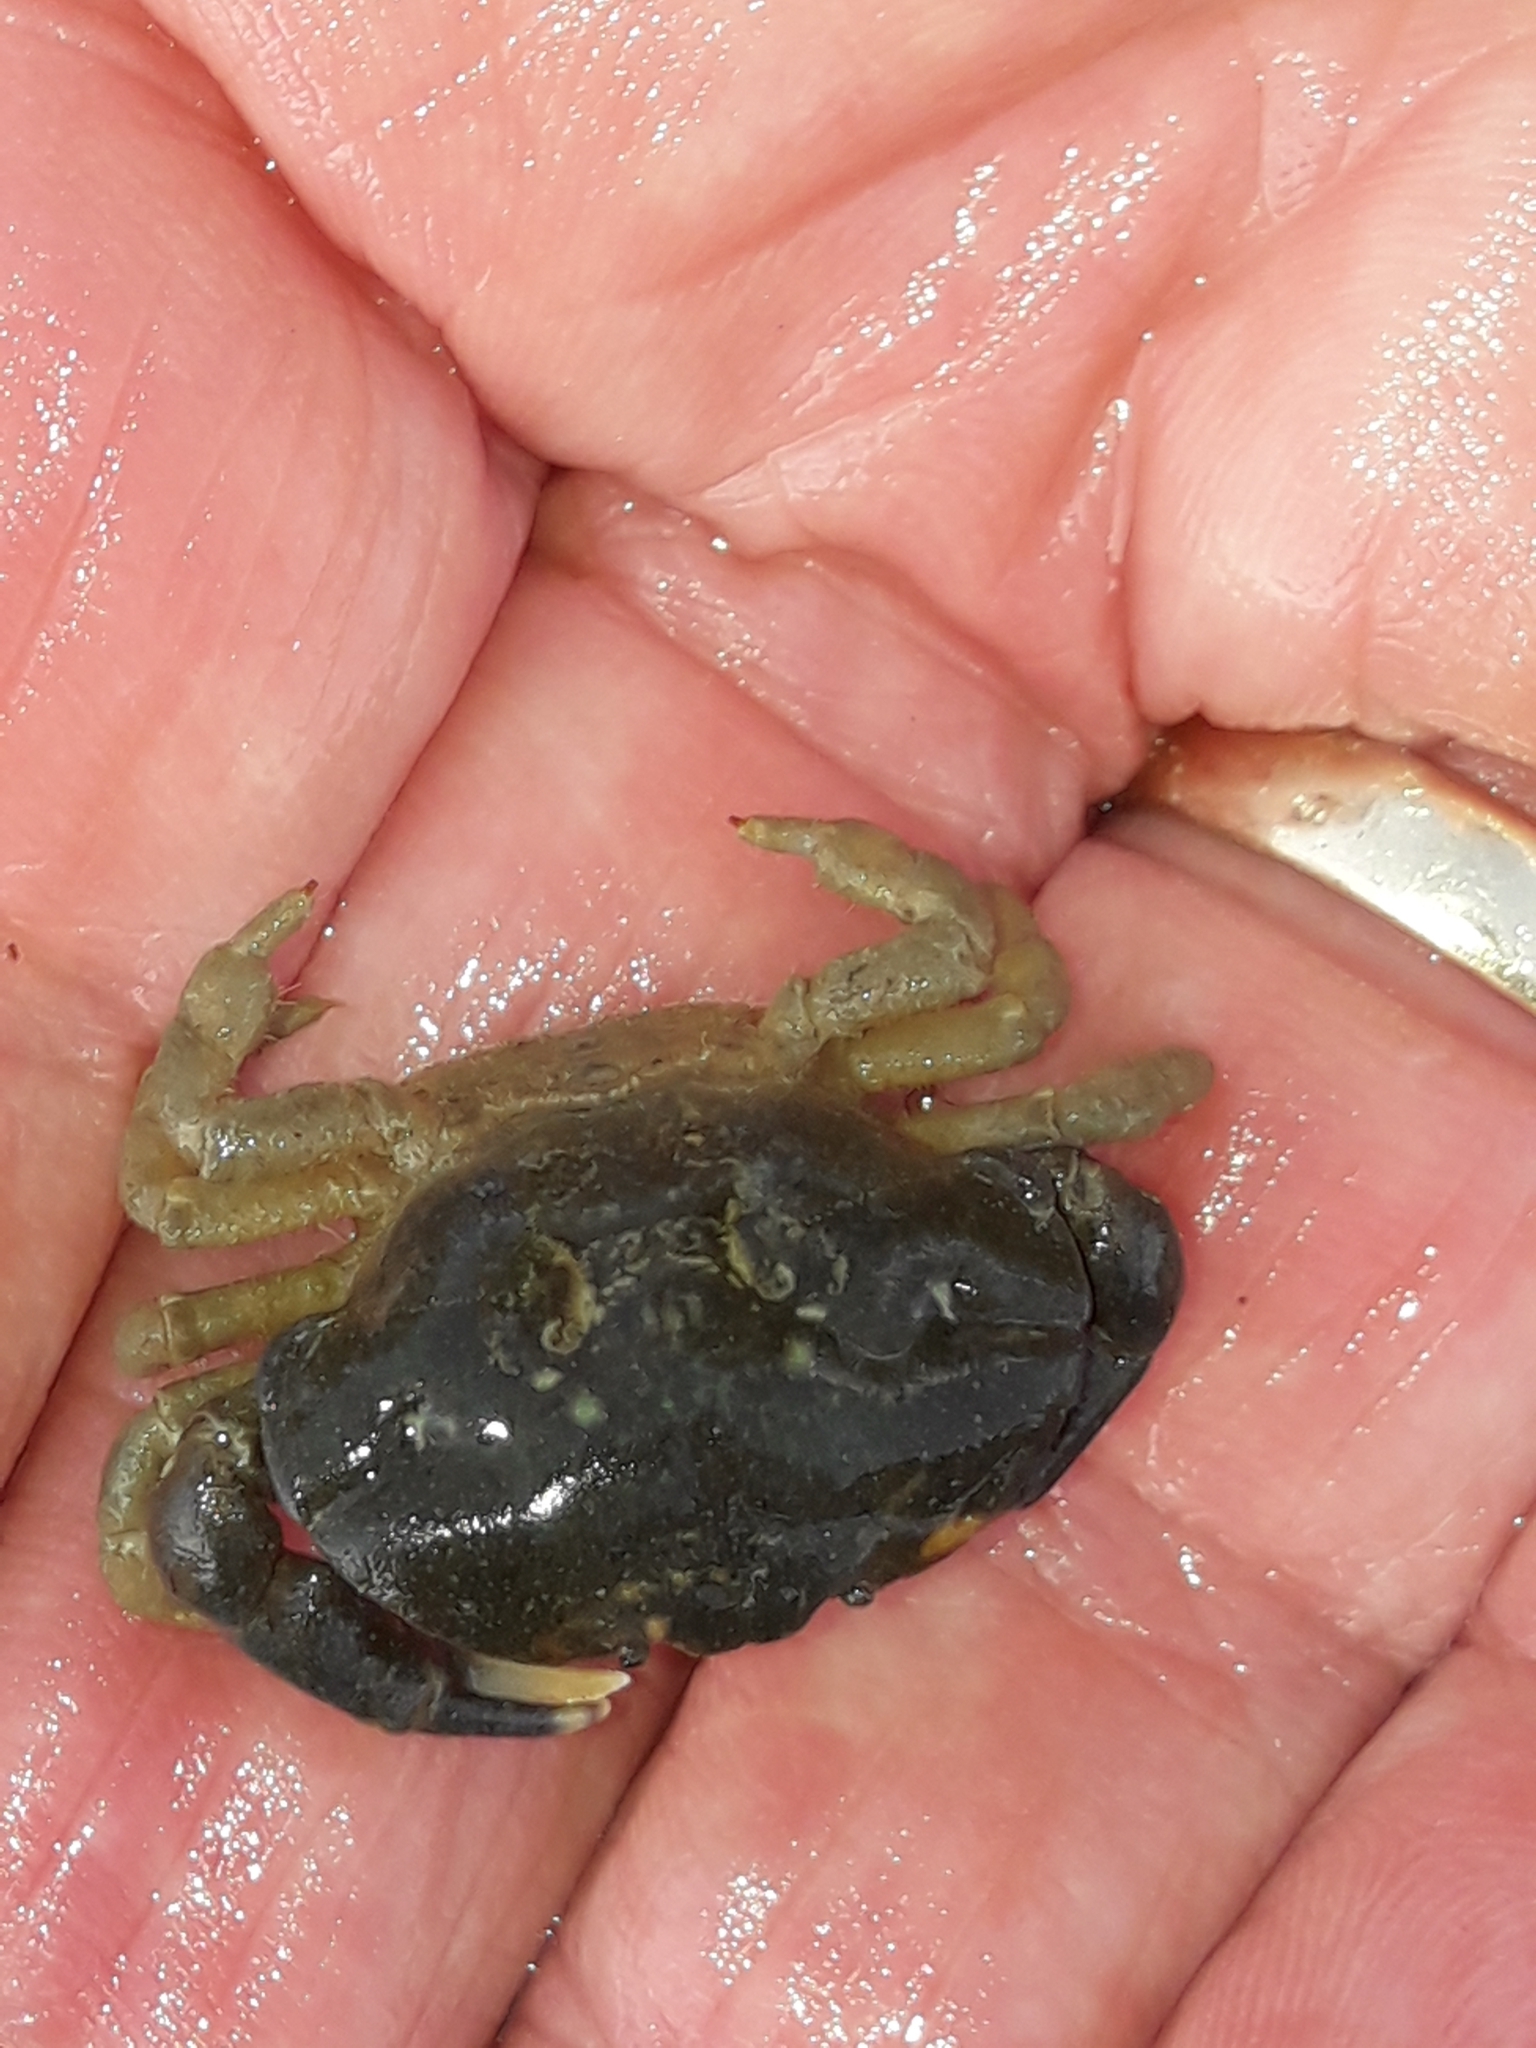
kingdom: Animalia
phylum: Arthropoda
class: Malacostraca
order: Decapoda
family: Heteroziidae
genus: Heterozius
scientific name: Heterozius rotundifrons
